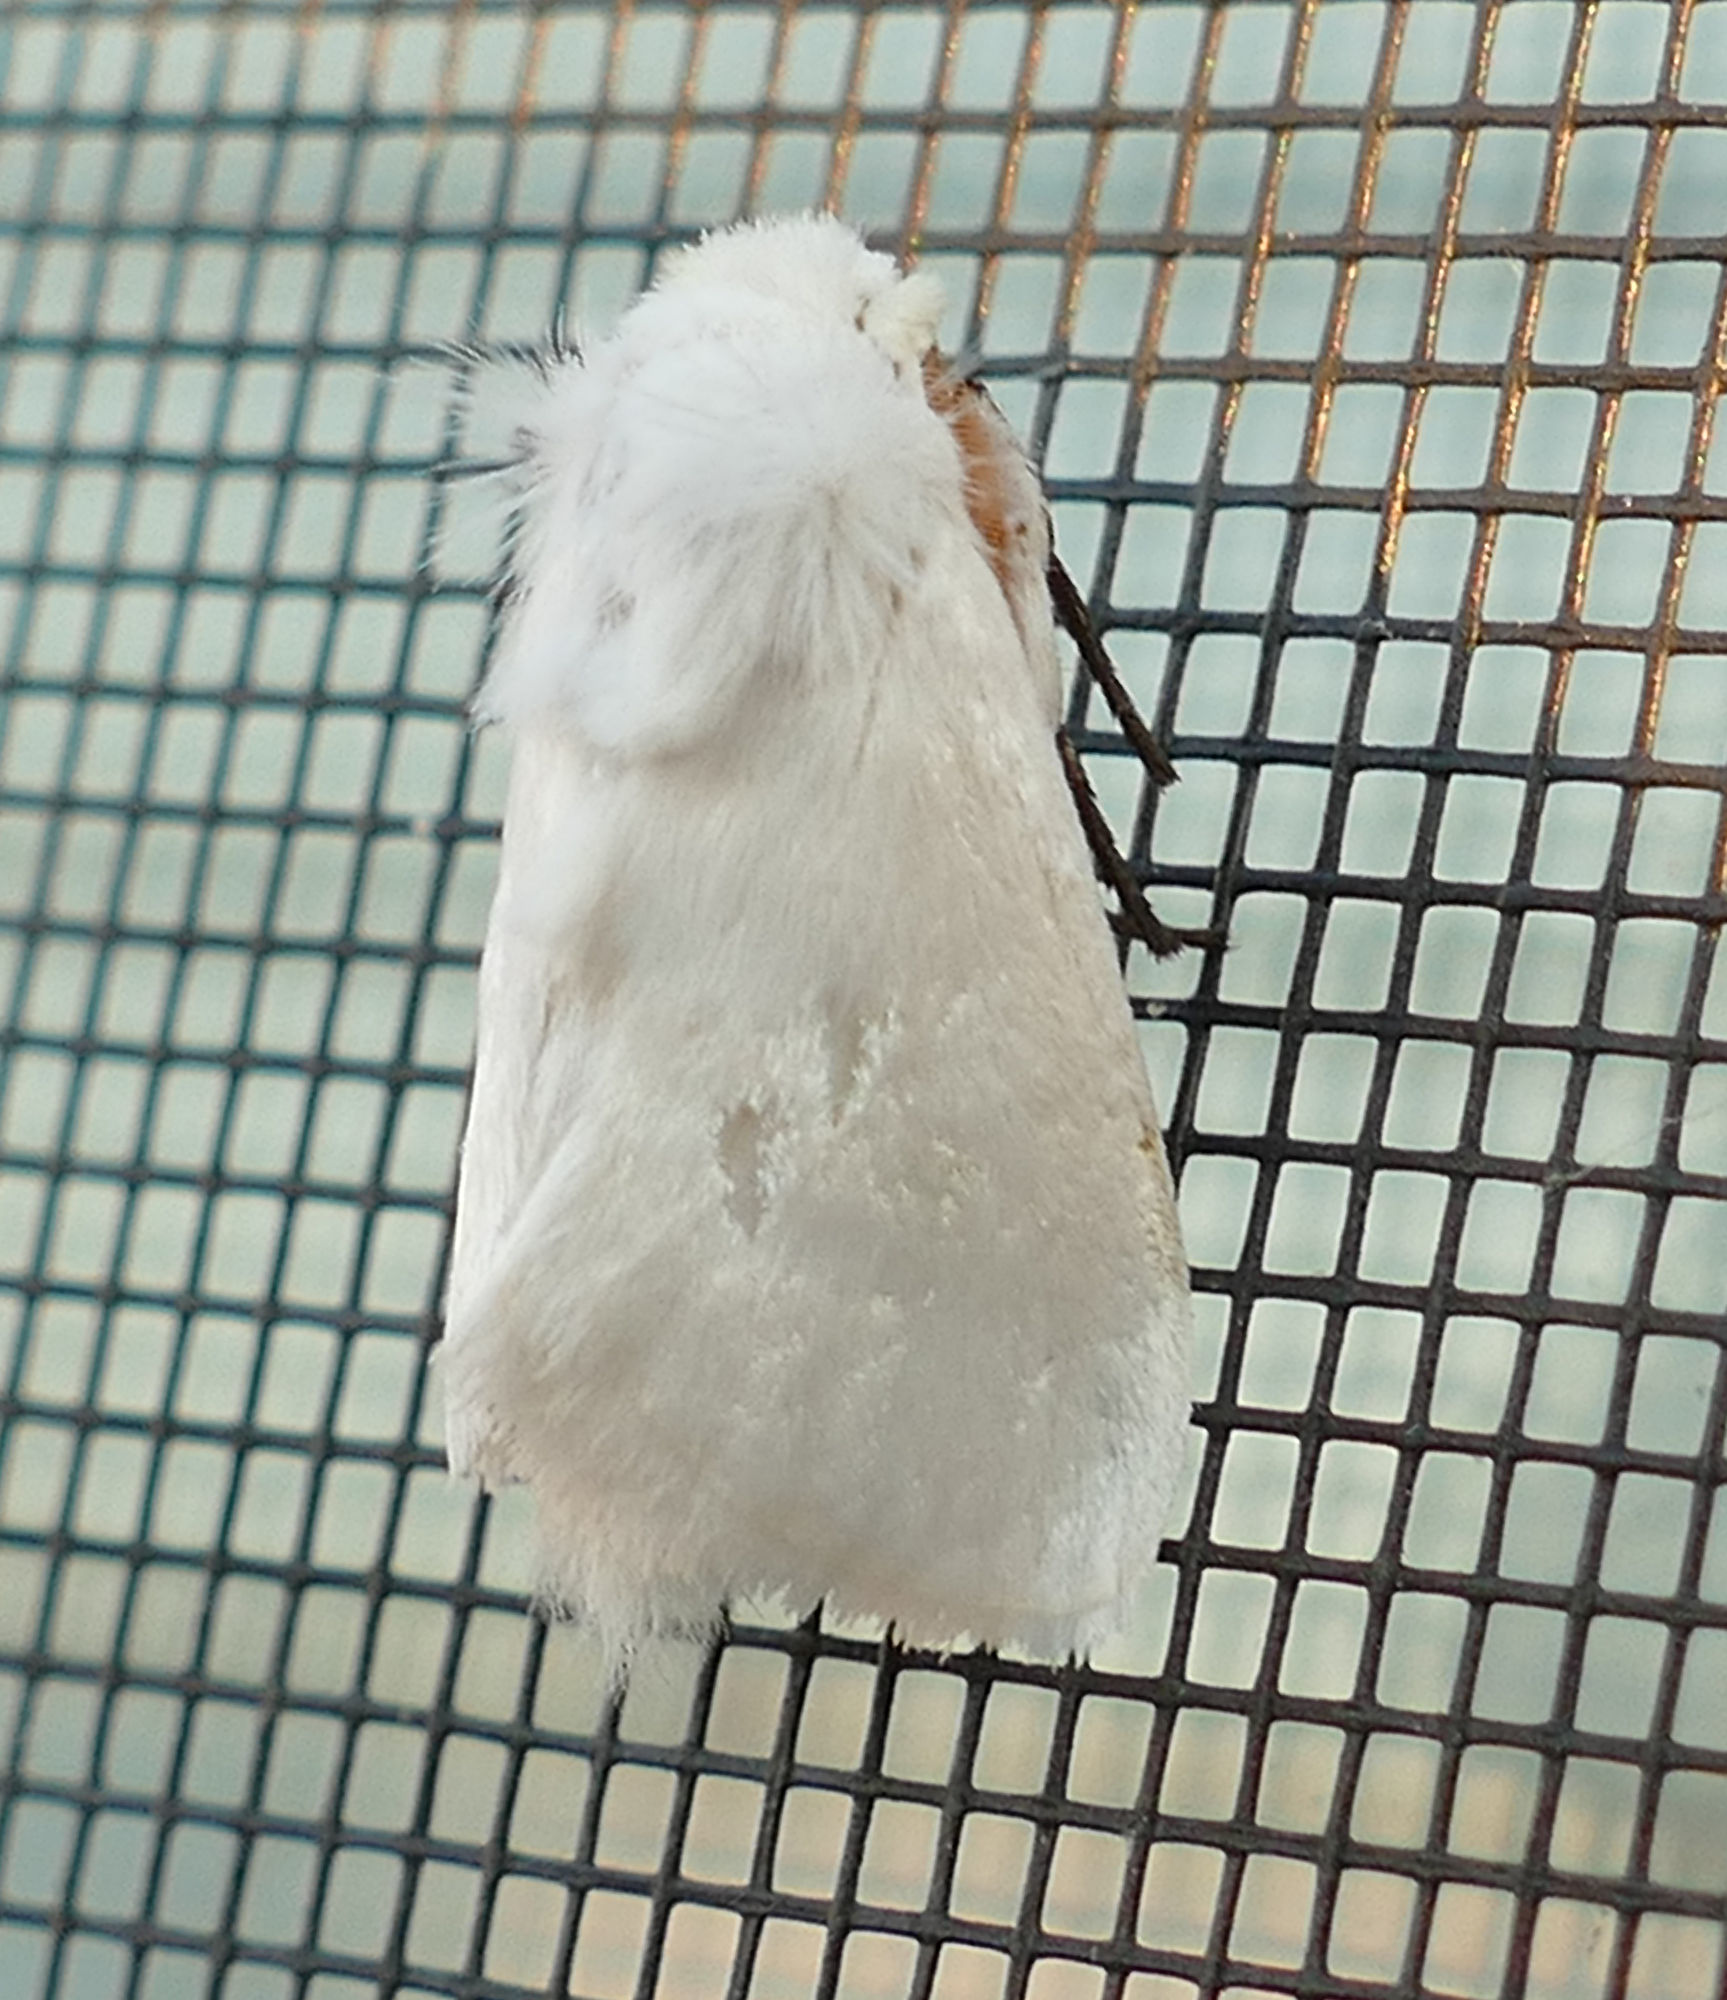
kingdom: Animalia
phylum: Arthropoda
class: Insecta
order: Lepidoptera
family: Megalopygidae
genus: Norape
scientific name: Norape virgo
